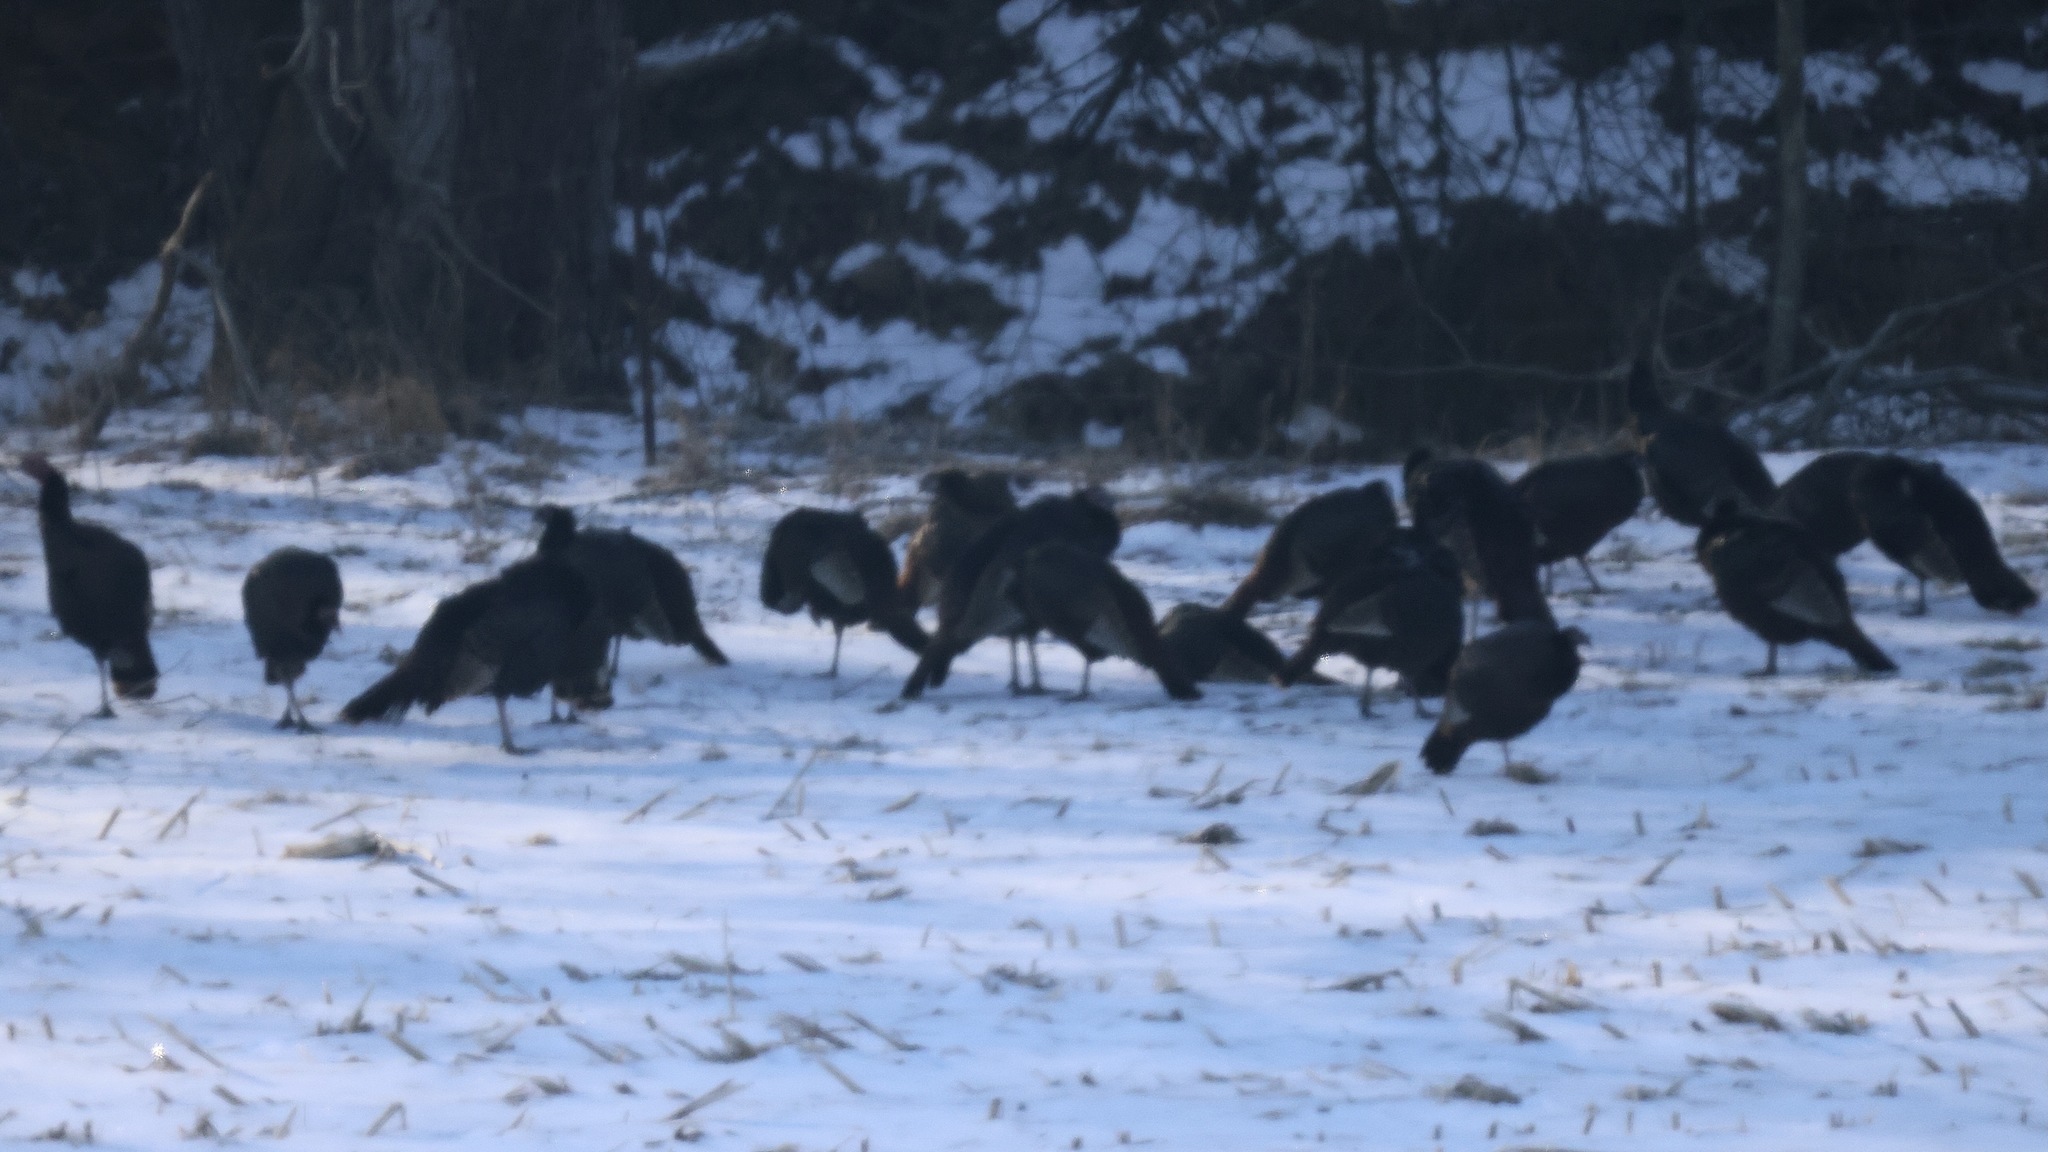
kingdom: Animalia
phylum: Chordata
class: Aves
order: Galliformes
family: Phasianidae
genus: Meleagris
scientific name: Meleagris gallopavo
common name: Wild turkey
